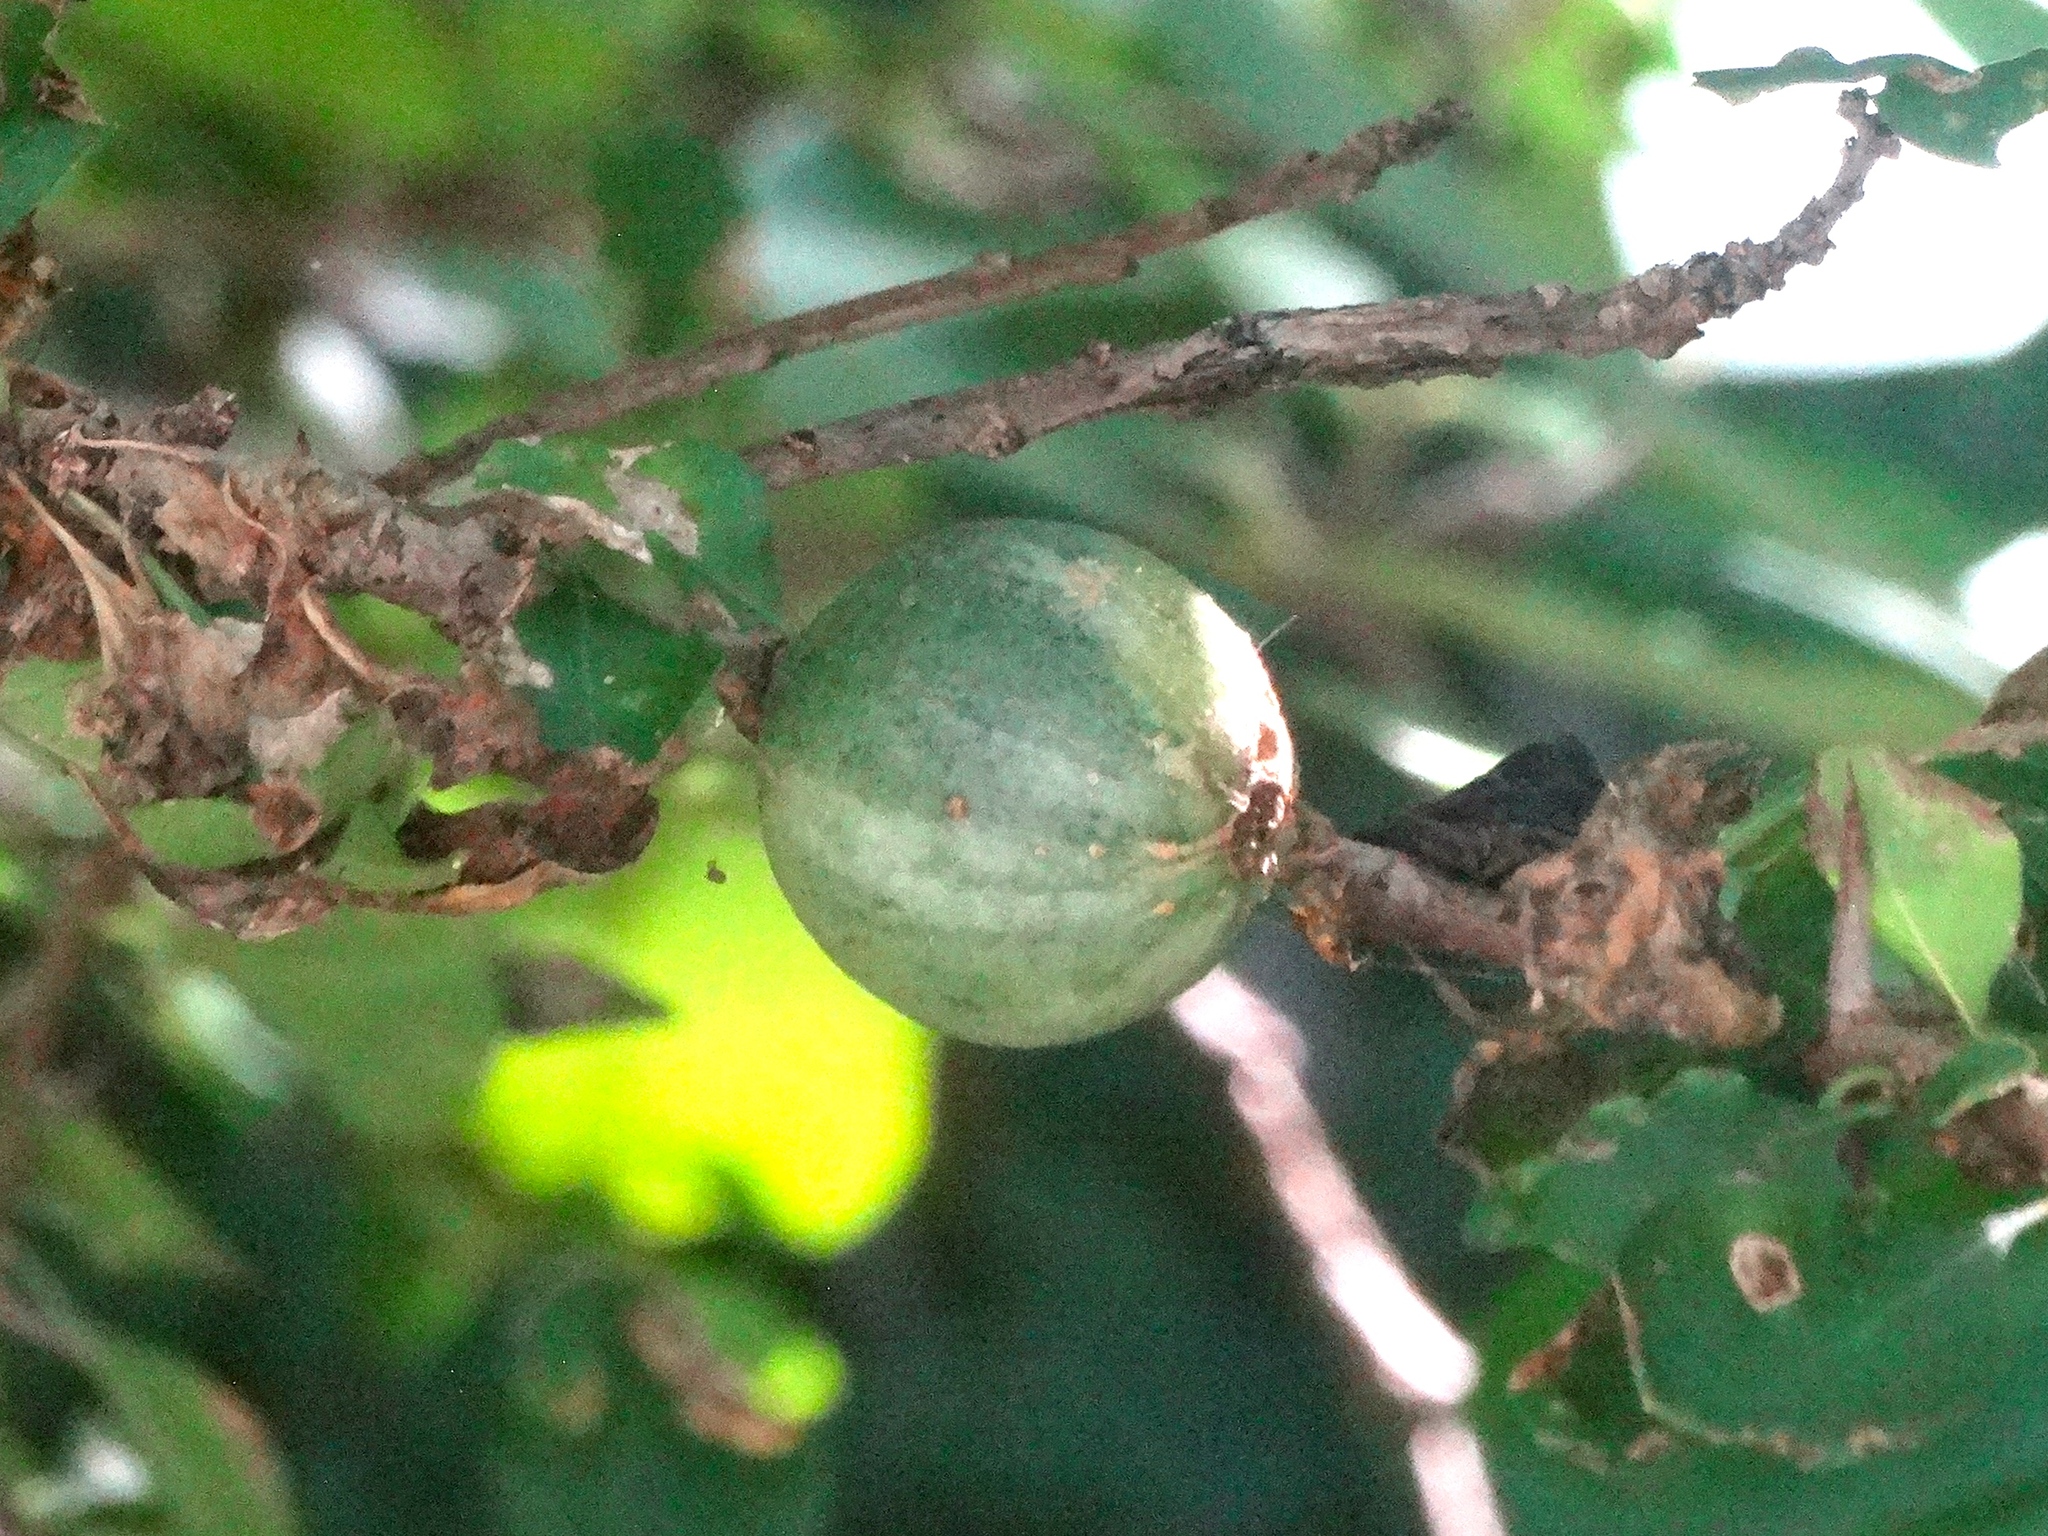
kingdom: Plantae
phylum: Tracheophyta
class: Magnoliopsida
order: Gentianales
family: Rubiaceae
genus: Randia
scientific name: Randia thurberi
